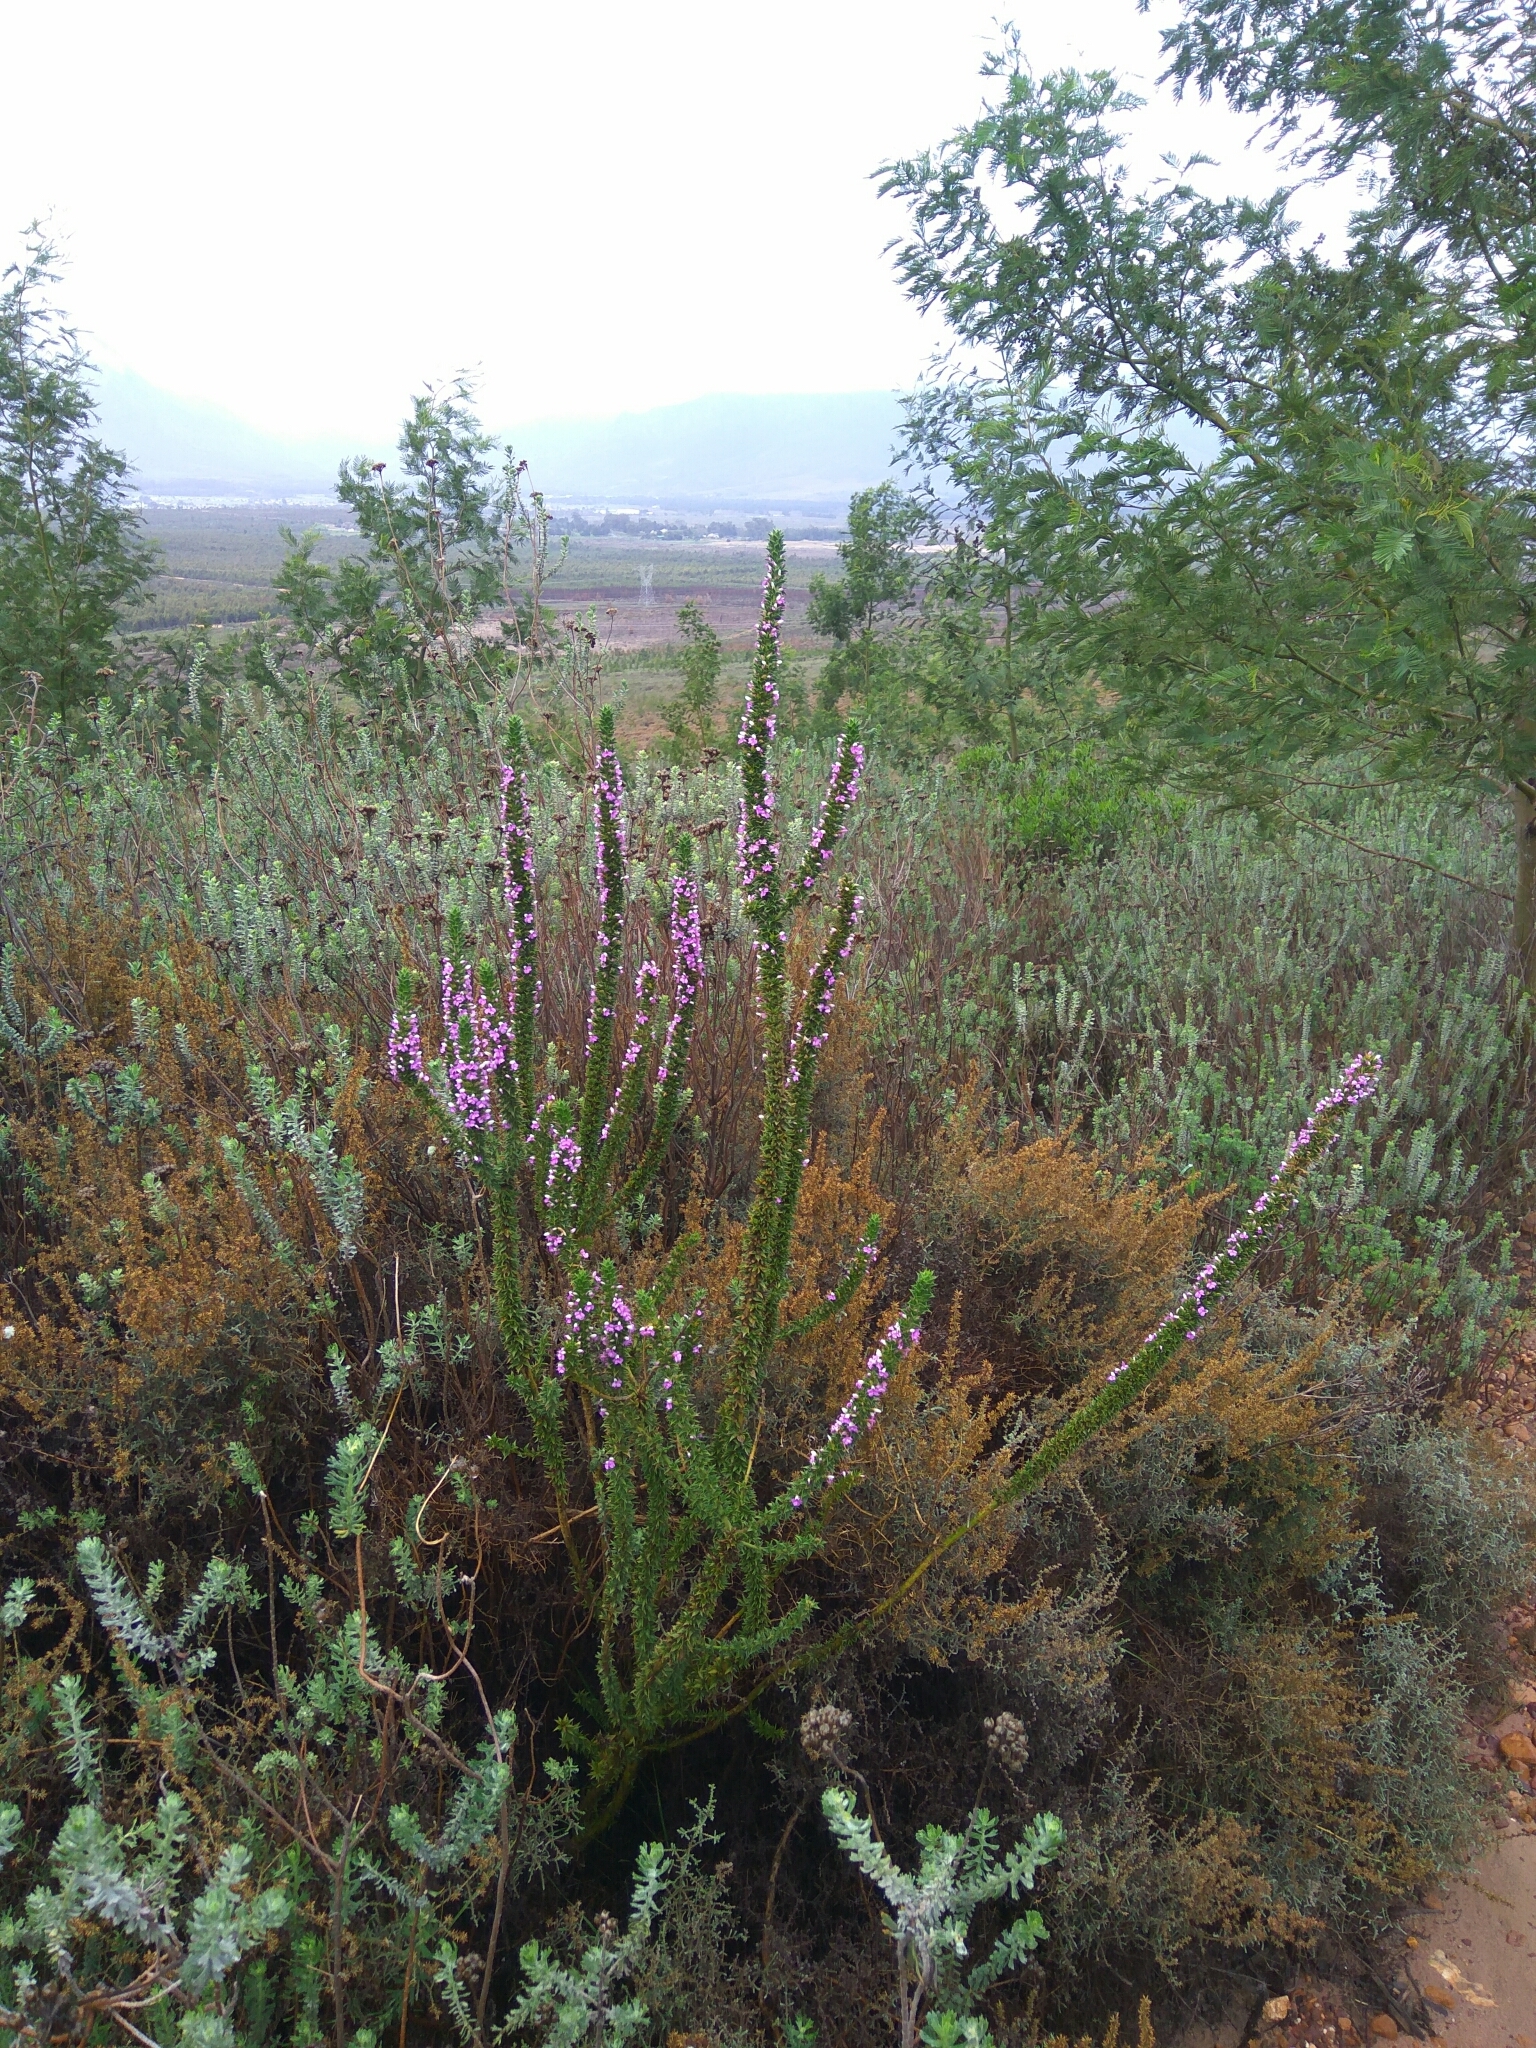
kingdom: Plantae
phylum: Tracheophyta
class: Magnoliopsida
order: Fabales
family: Polygalaceae
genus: Muraltia
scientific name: Muraltia heisteria
